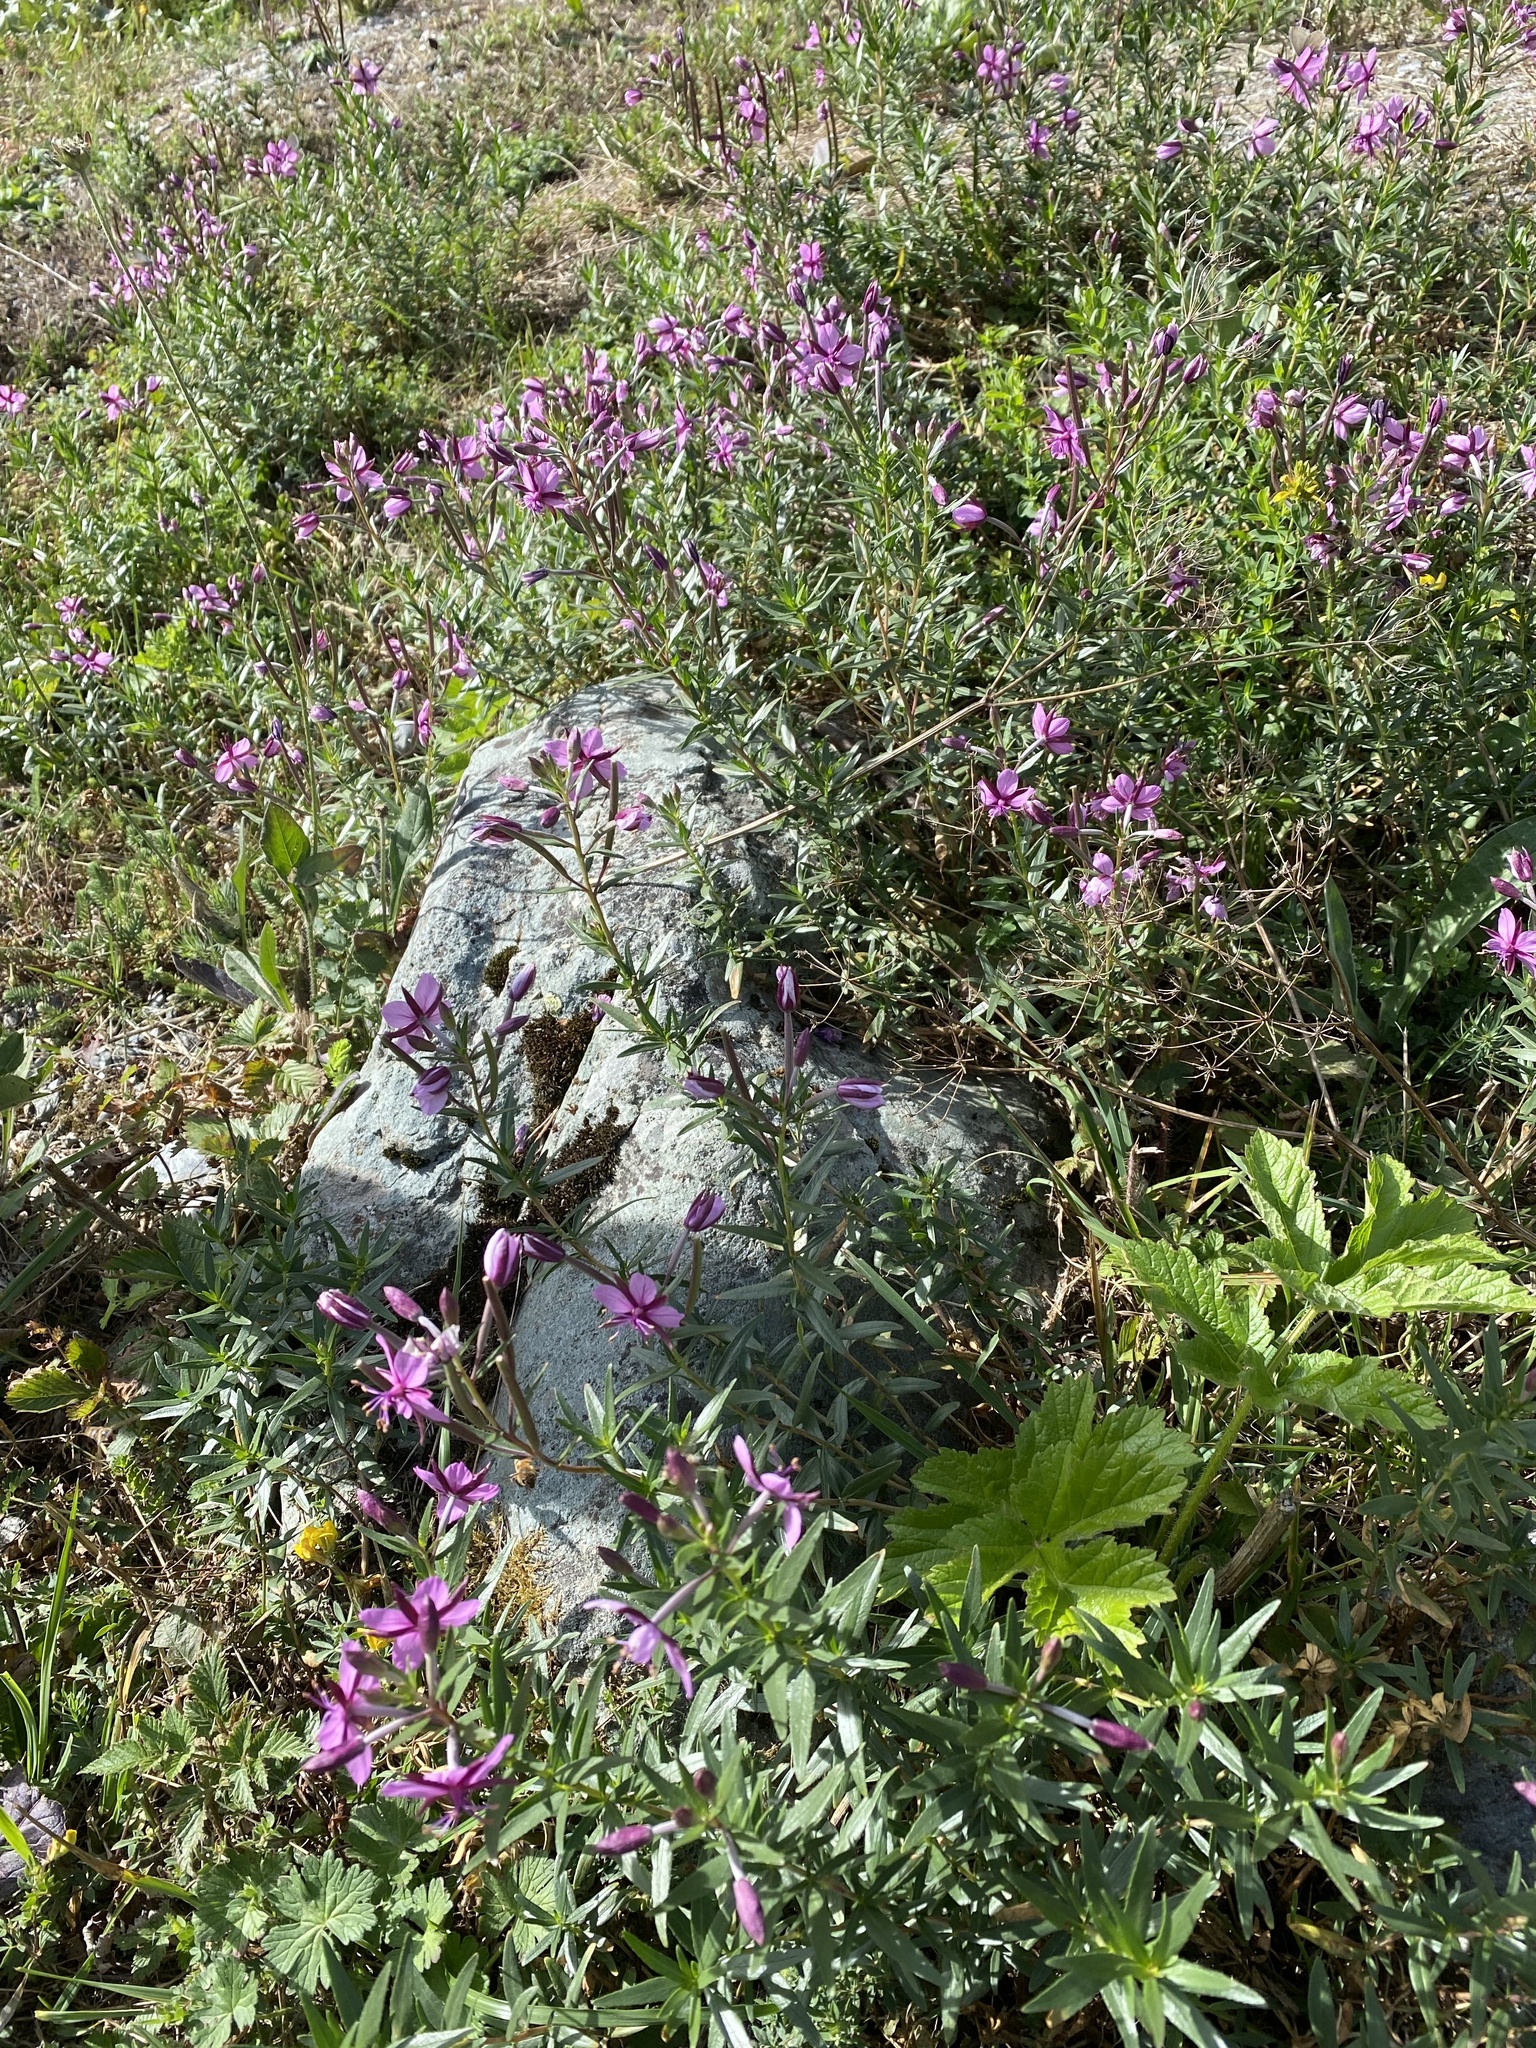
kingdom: Plantae
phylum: Tracheophyta
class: Magnoliopsida
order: Myrtales
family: Onagraceae
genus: Chamaenerion
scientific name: Chamaenerion fleischeri
